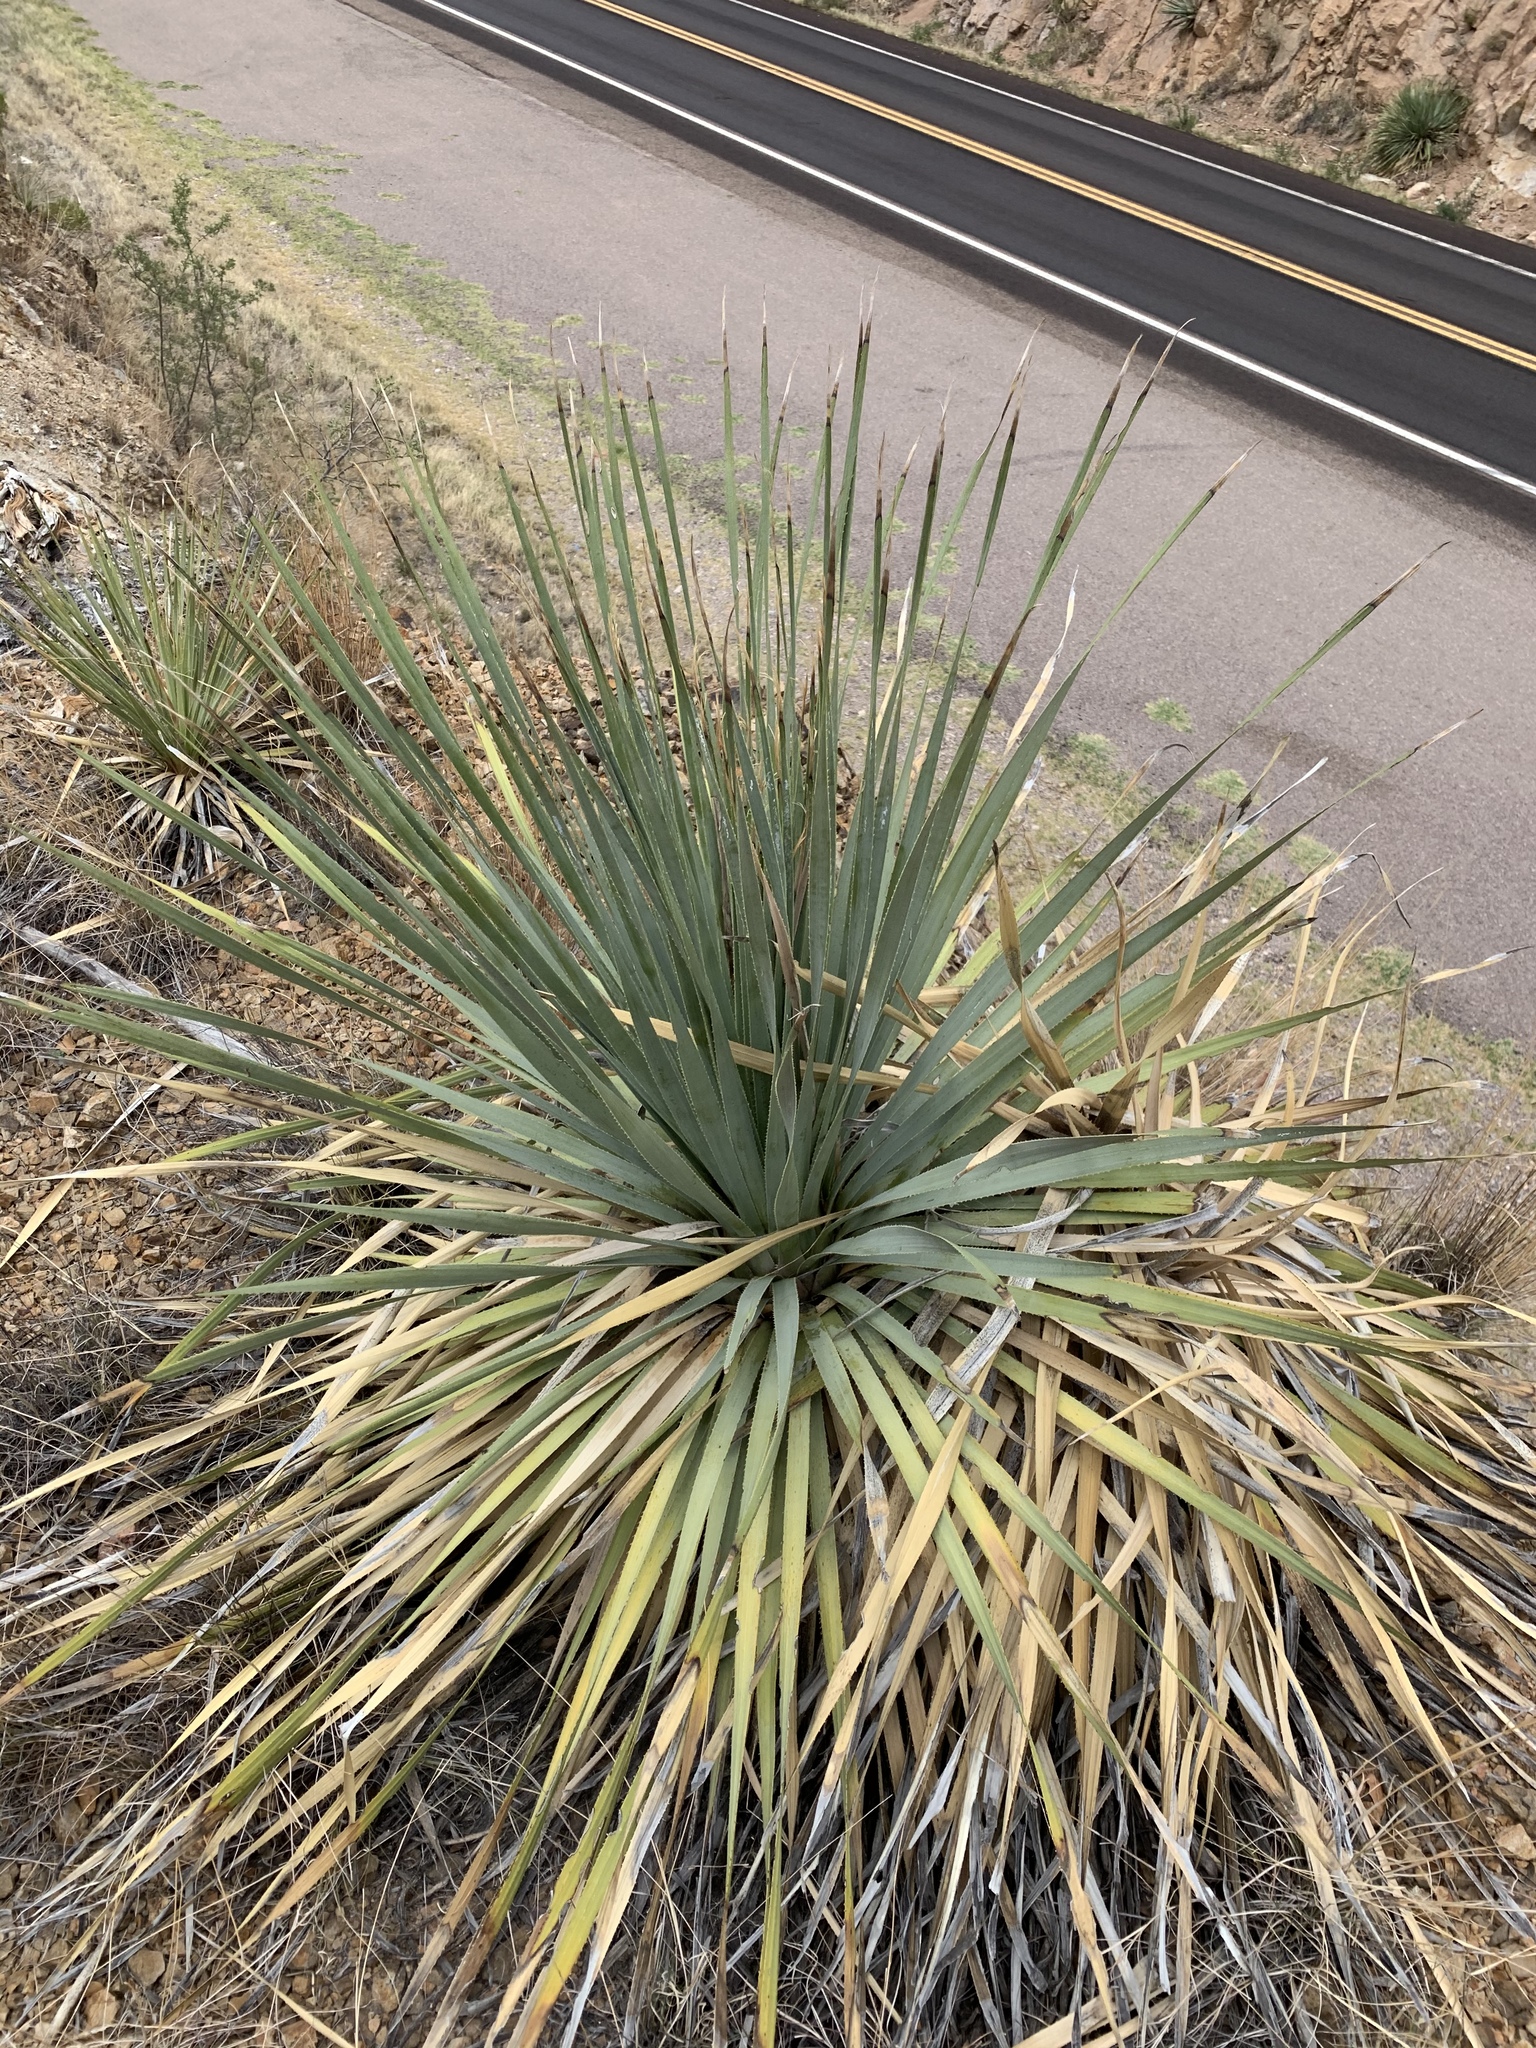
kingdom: Plantae
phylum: Tracheophyta
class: Liliopsida
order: Asparagales
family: Asparagaceae
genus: Dasylirion
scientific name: Dasylirion wheeleri
